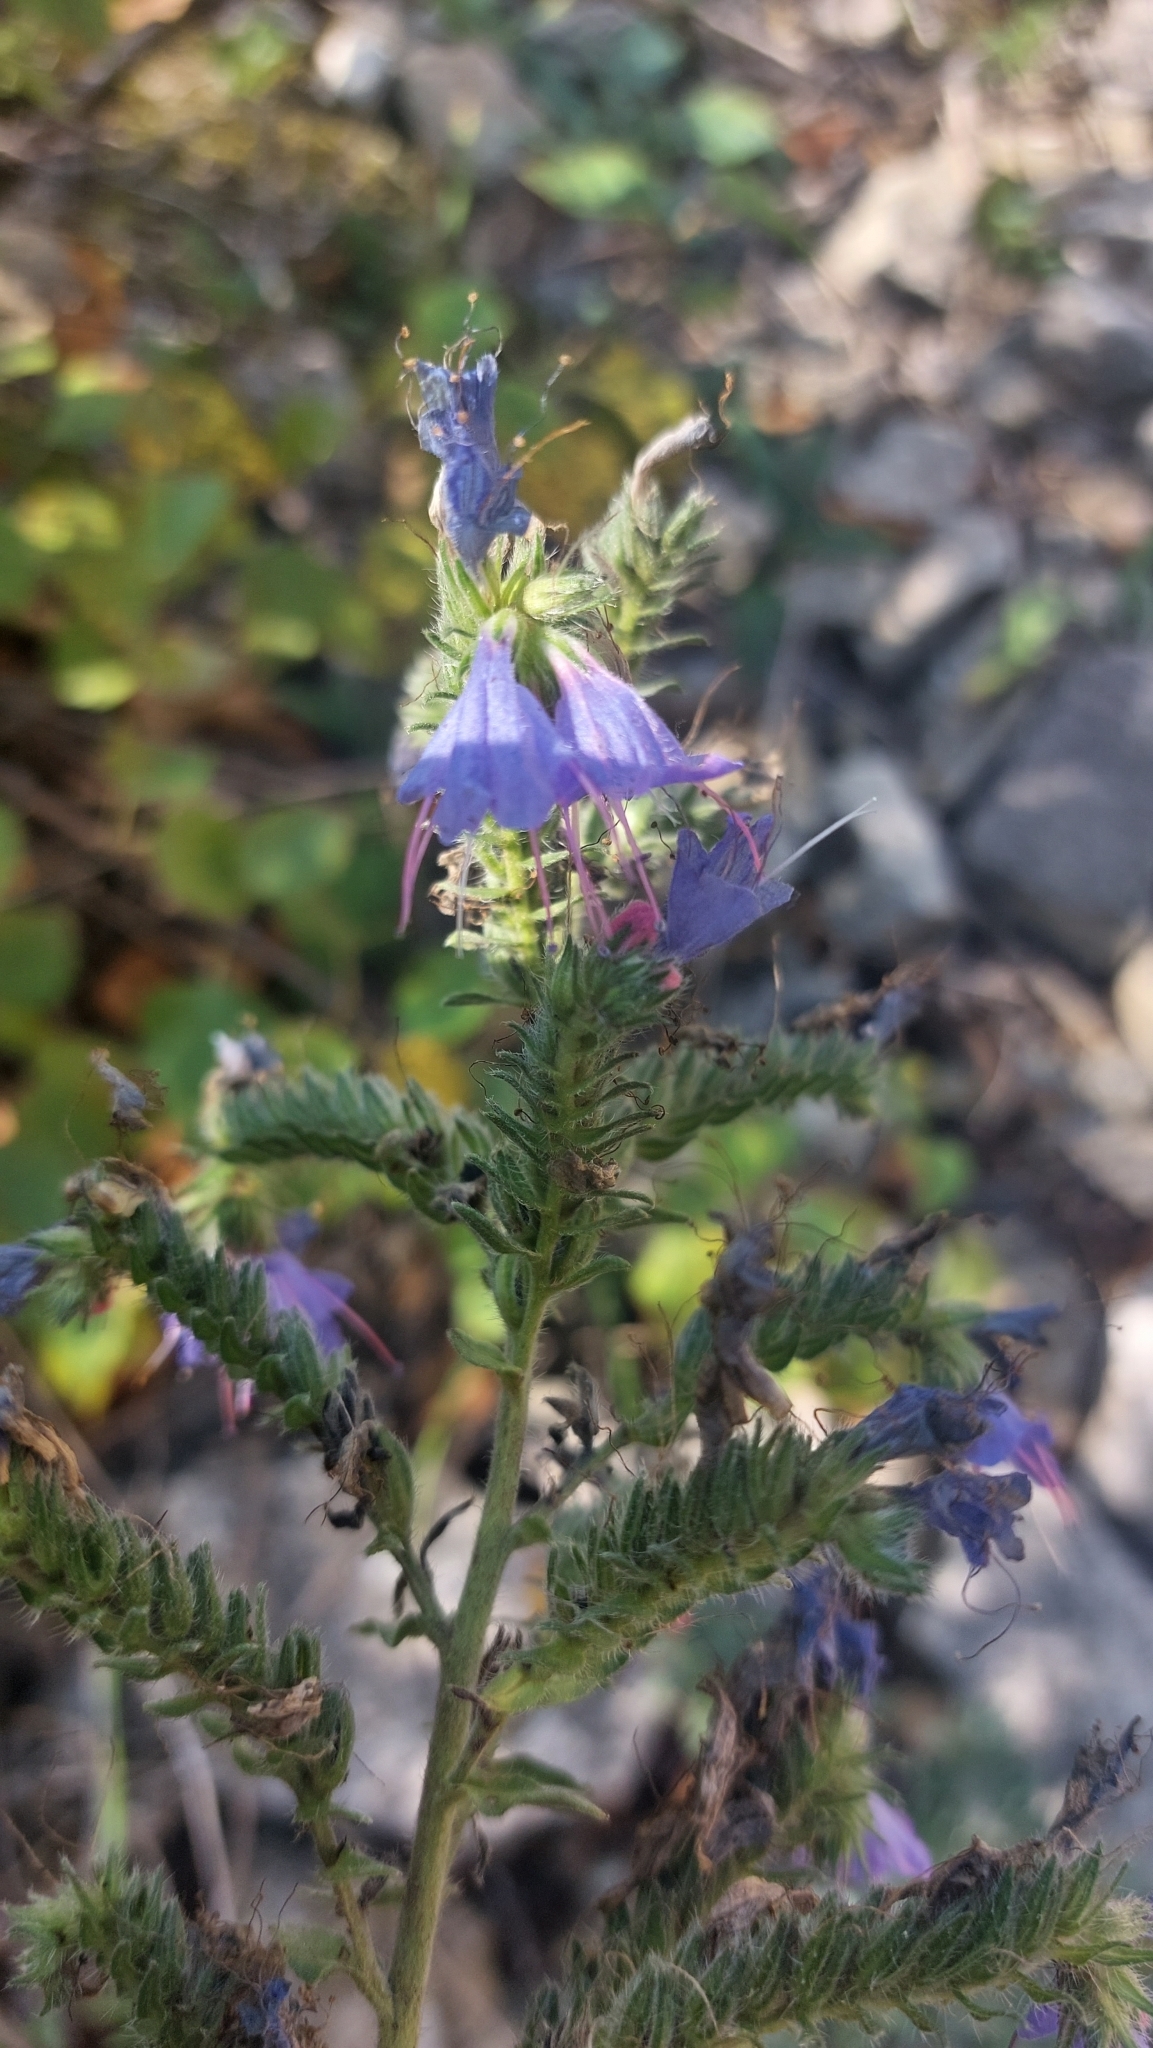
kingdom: Plantae
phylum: Tracheophyta
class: Magnoliopsida
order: Boraginales
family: Boraginaceae
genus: Echium
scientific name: Echium vulgare
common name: Common viper's bugloss
